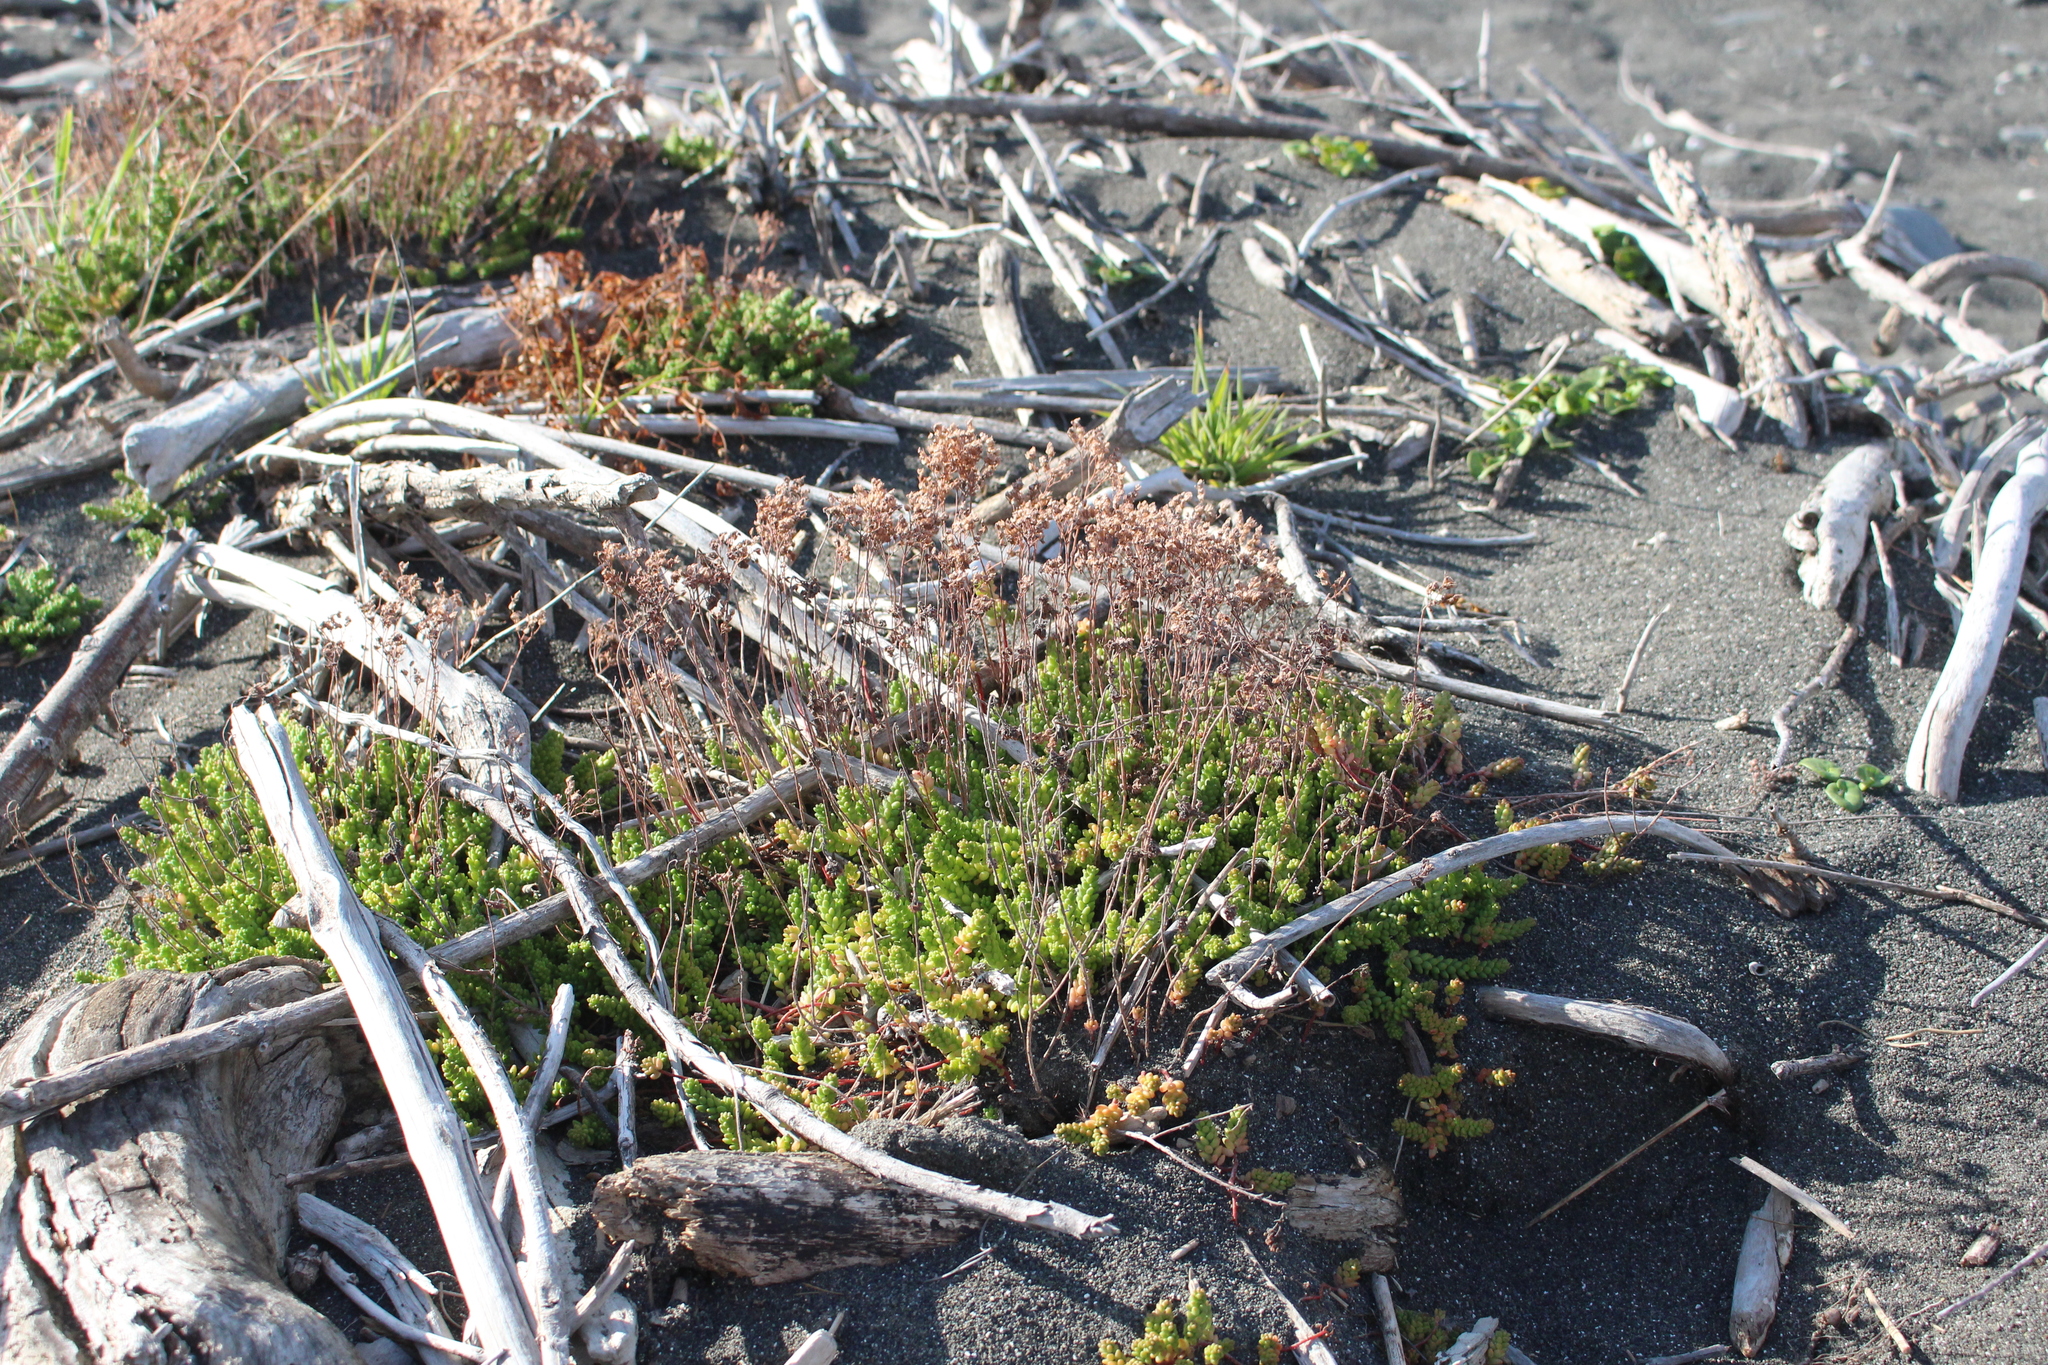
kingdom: Plantae
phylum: Tracheophyta
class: Magnoliopsida
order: Saxifragales
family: Crassulaceae
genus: Sedum
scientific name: Sedum album
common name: White stonecrop
